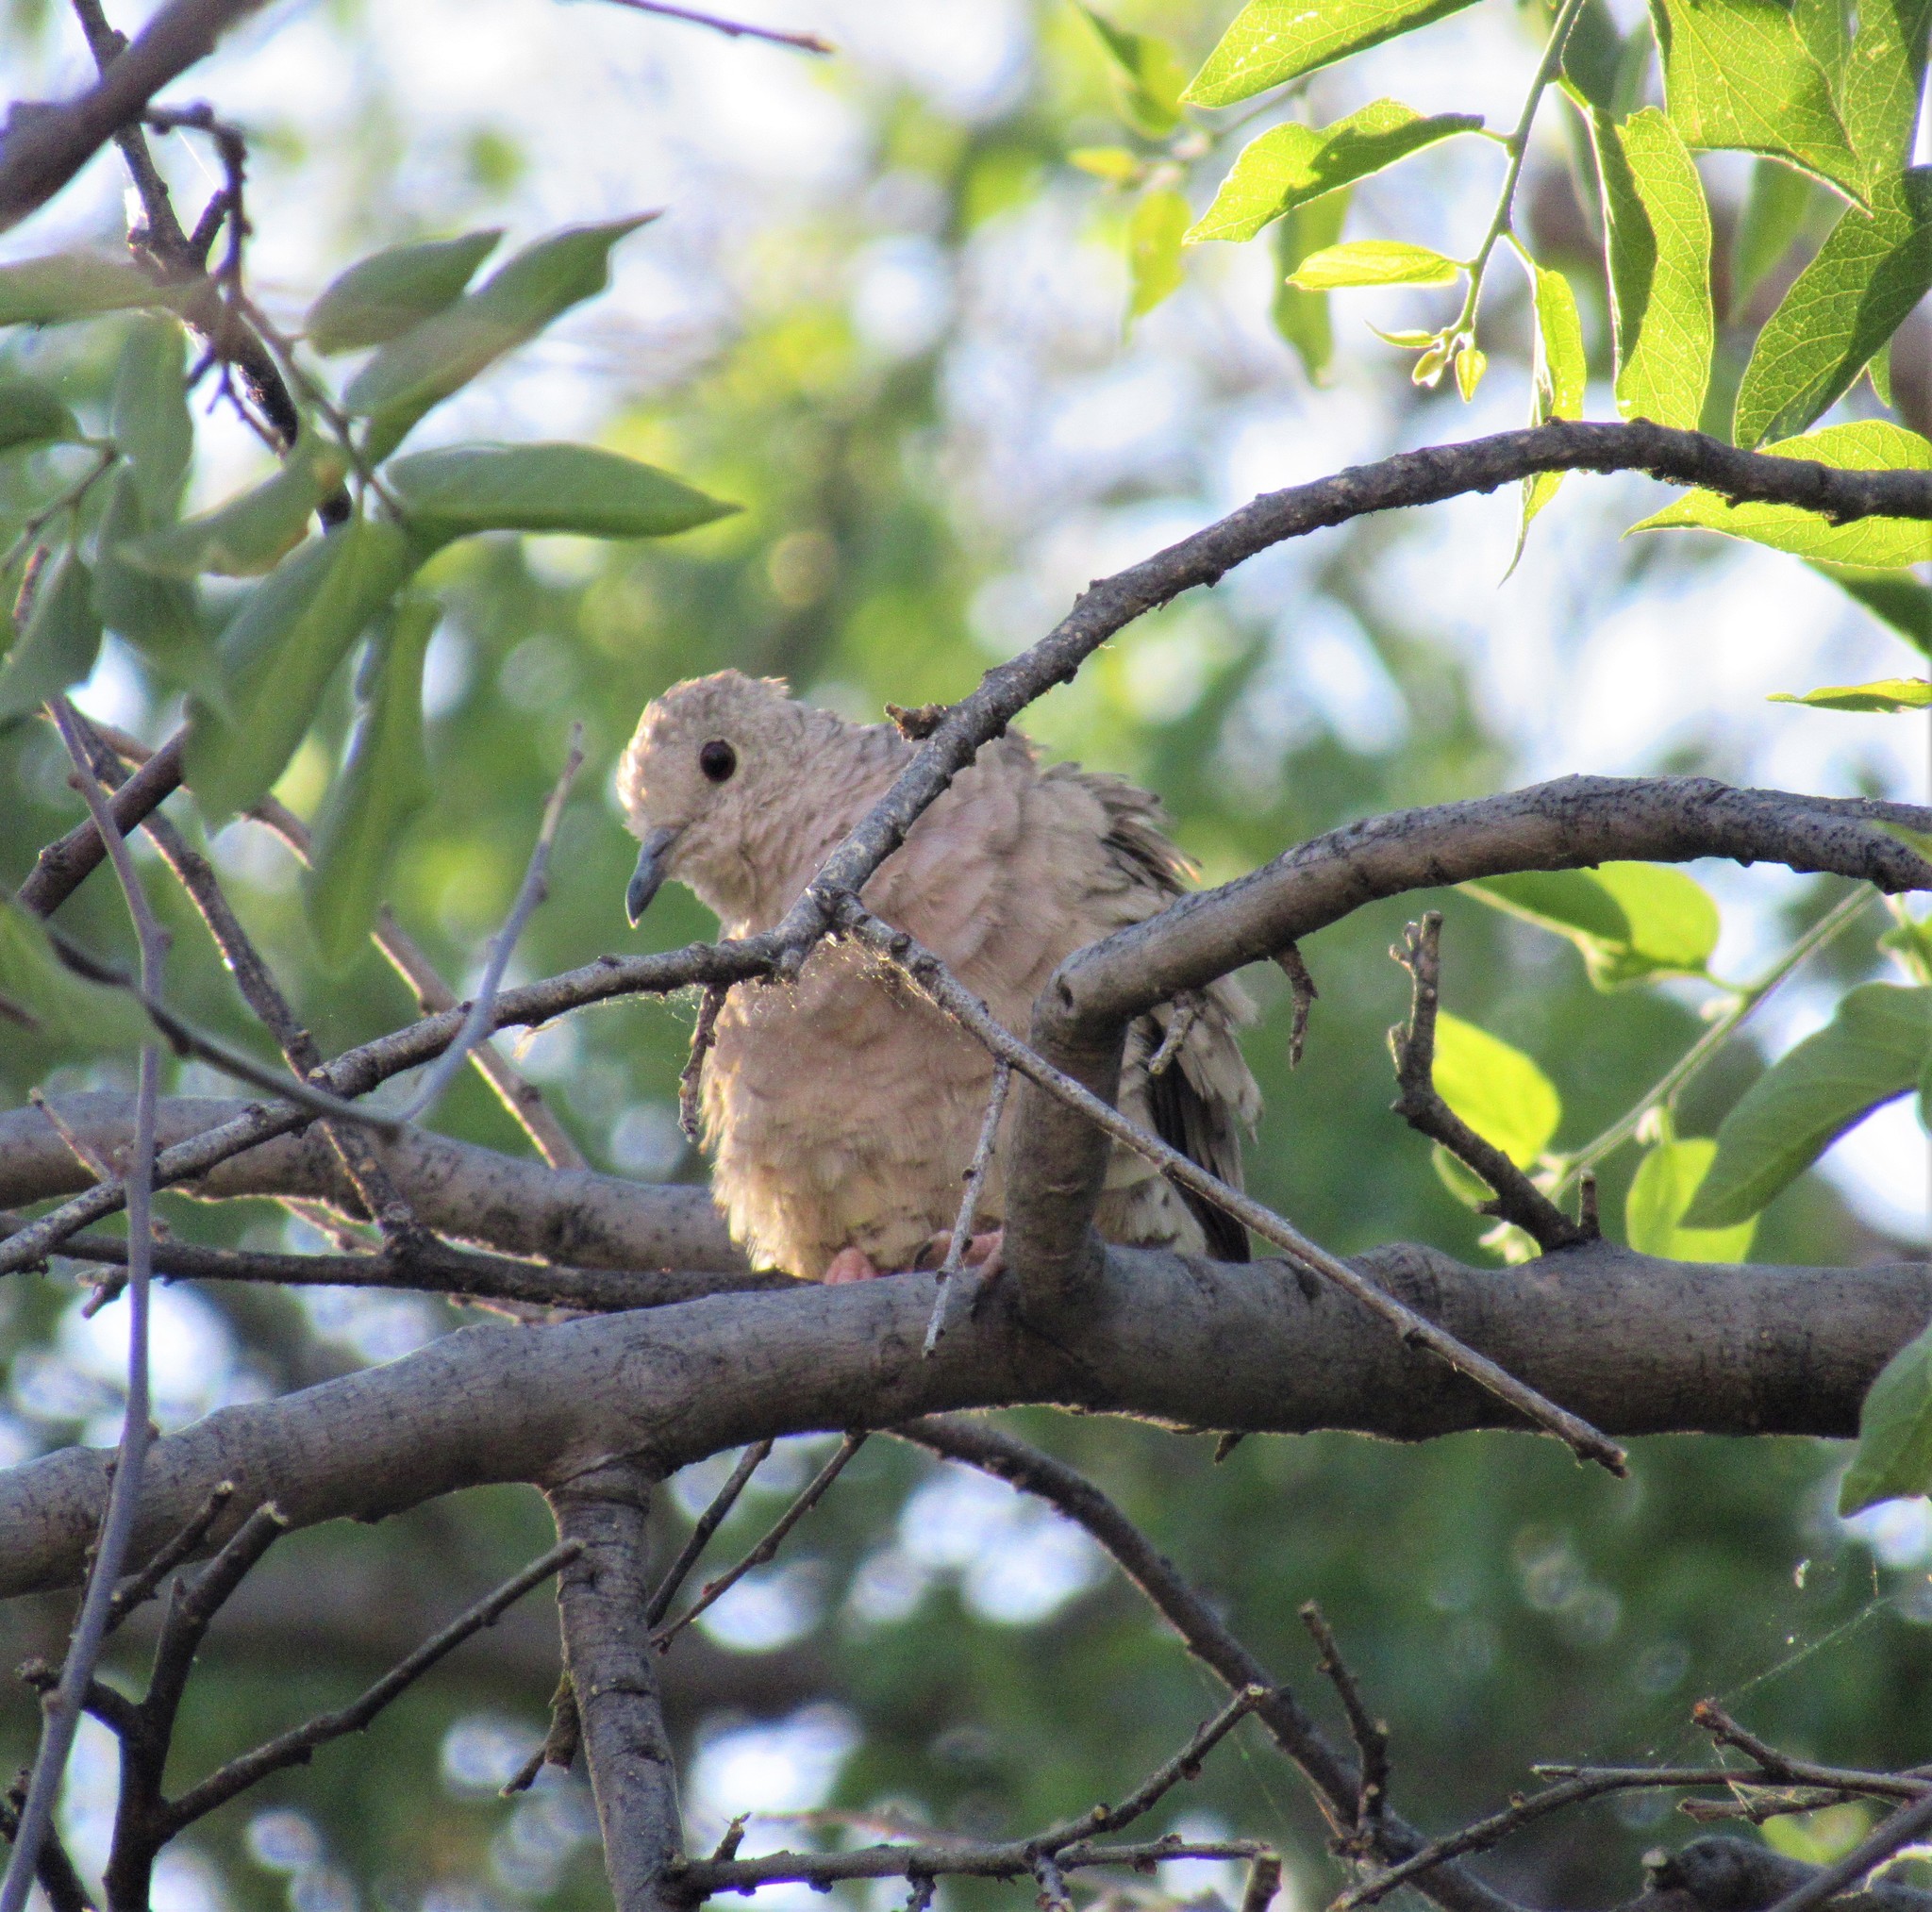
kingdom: Animalia
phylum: Chordata
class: Aves
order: Columbiformes
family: Columbidae
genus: Columbina
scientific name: Columbina inca
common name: Inca dove
